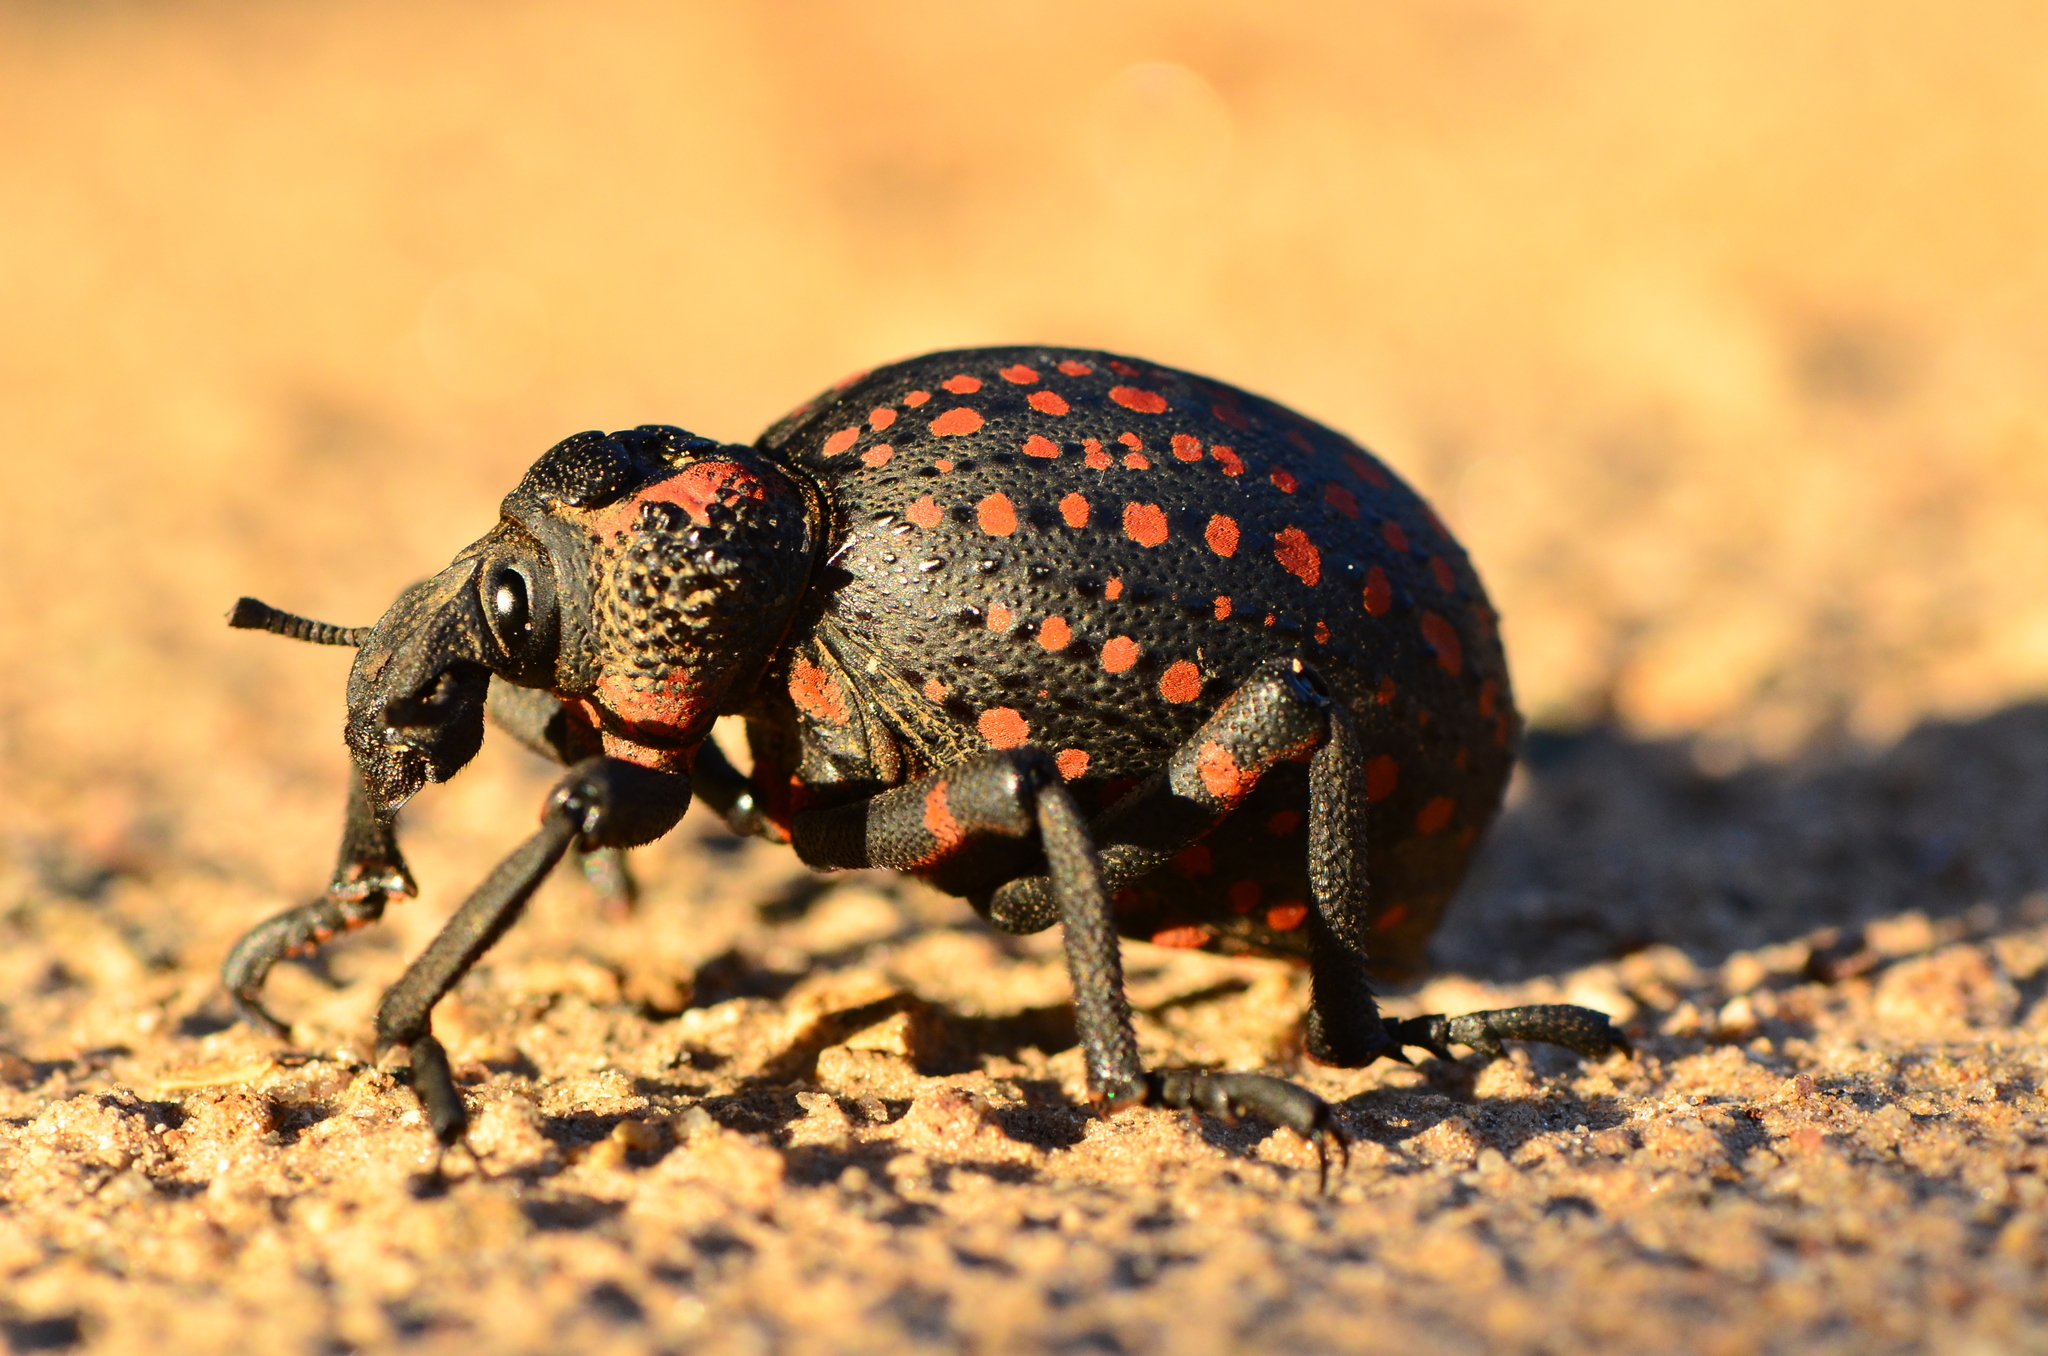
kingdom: Animalia
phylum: Arthropoda
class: Insecta
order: Coleoptera
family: Brachyceridae
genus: Brachycerus
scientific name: Brachycerus ornatus
